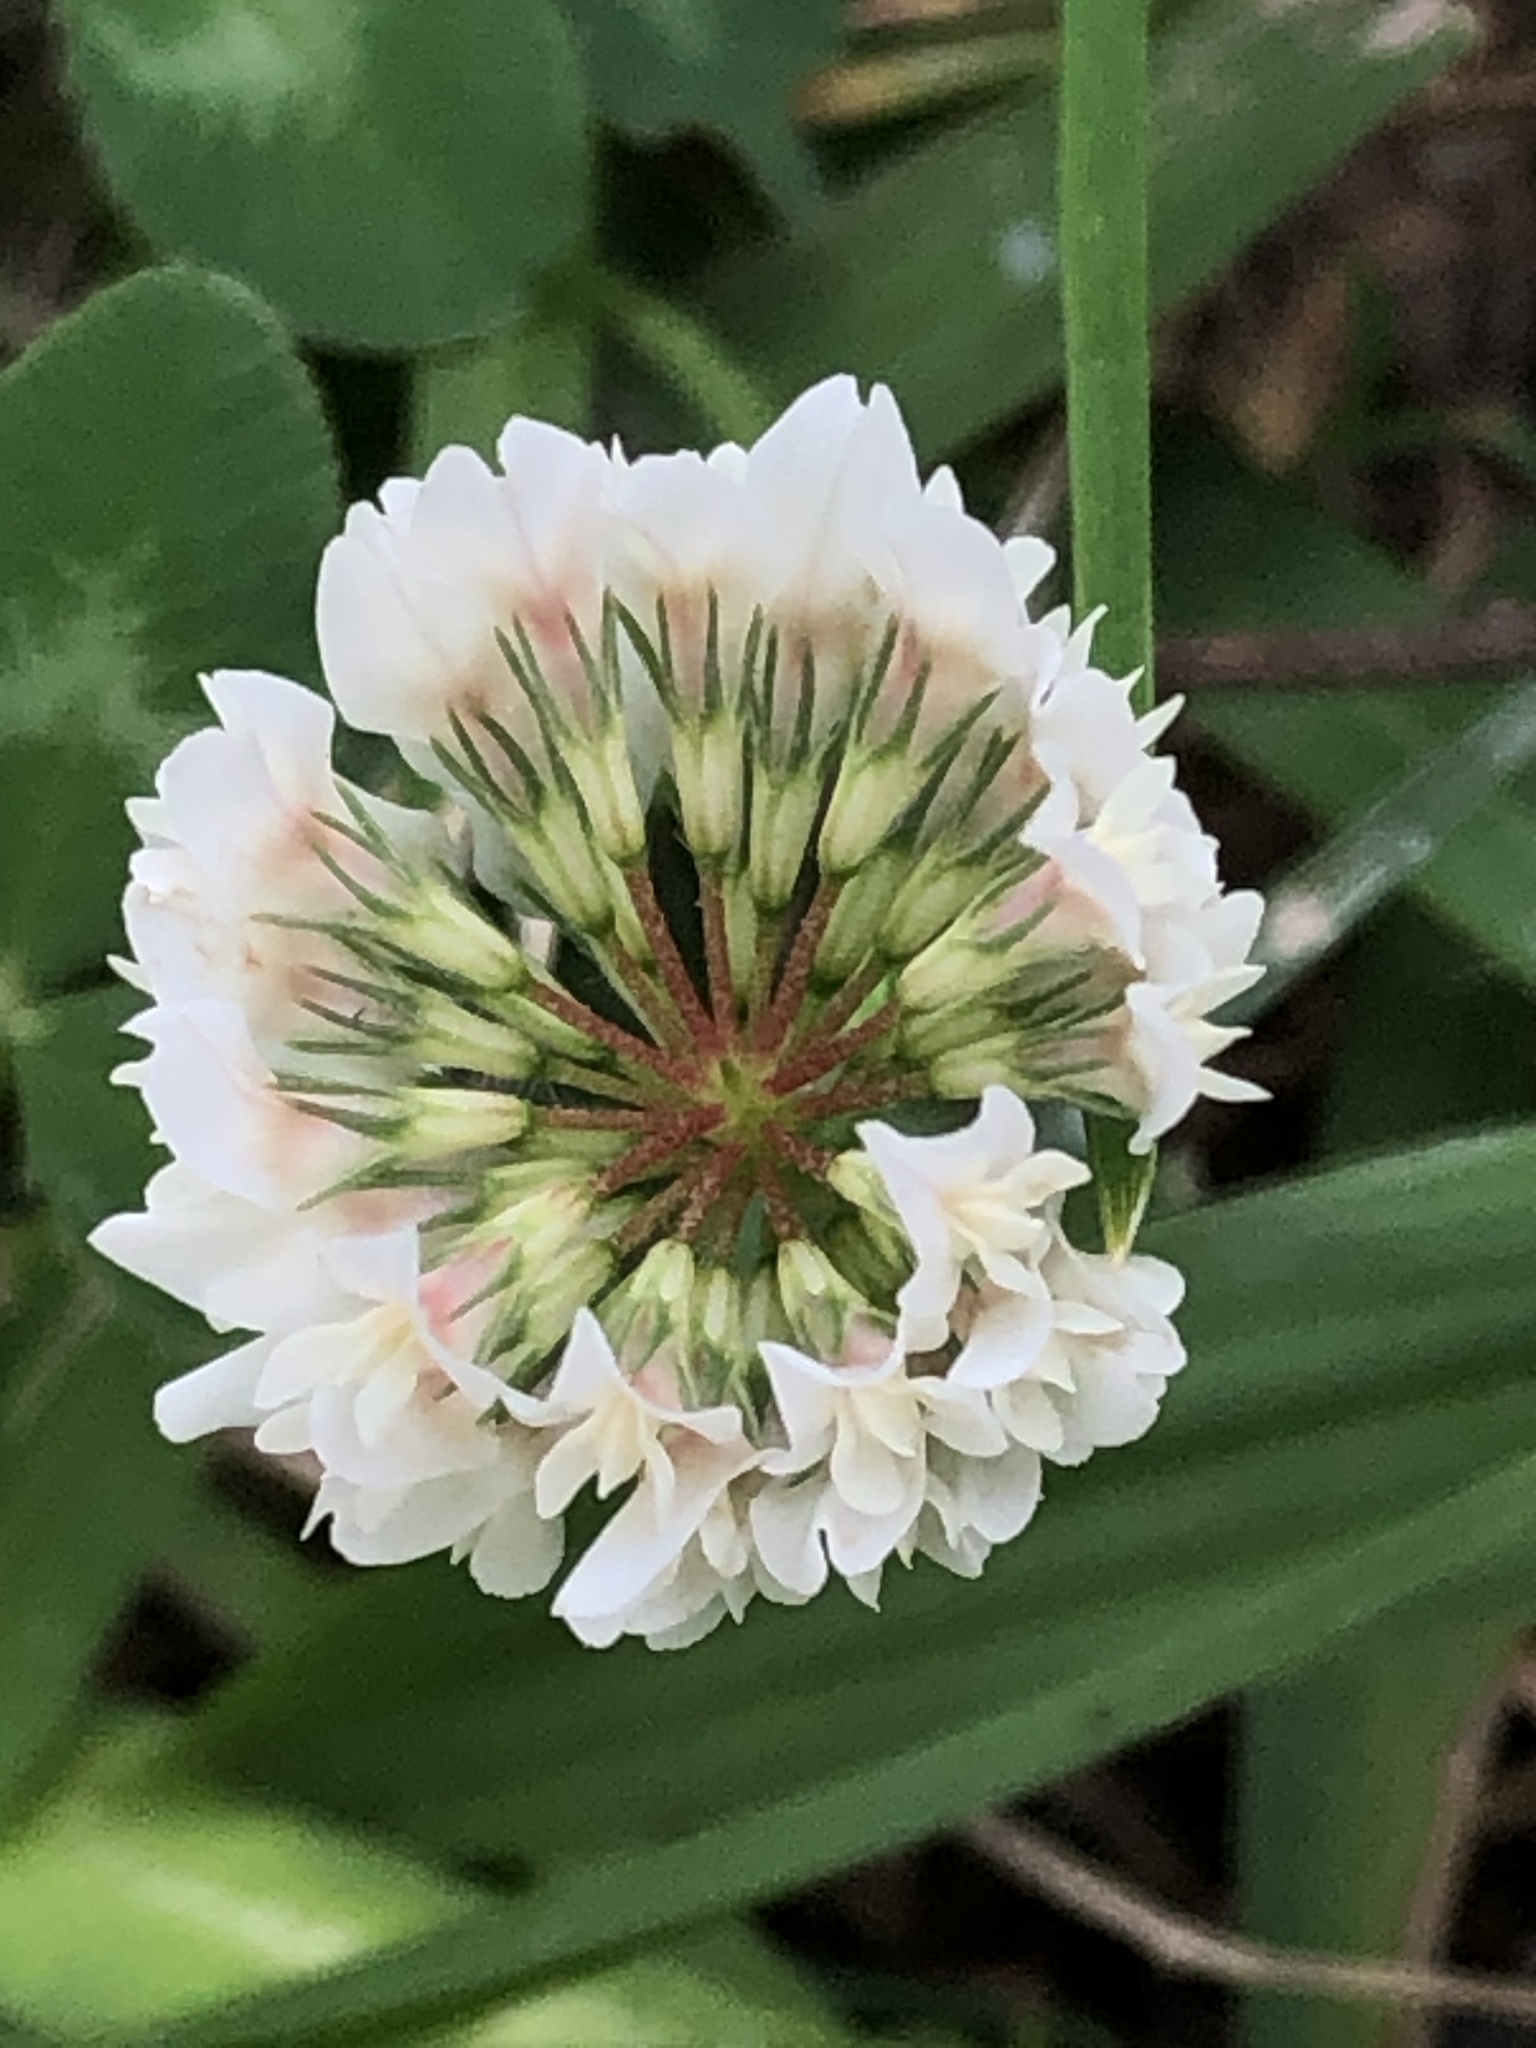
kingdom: Plantae
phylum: Tracheophyta
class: Magnoliopsida
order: Fabales
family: Fabaceae
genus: Trifolium
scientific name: Trifolium repens
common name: White clover
